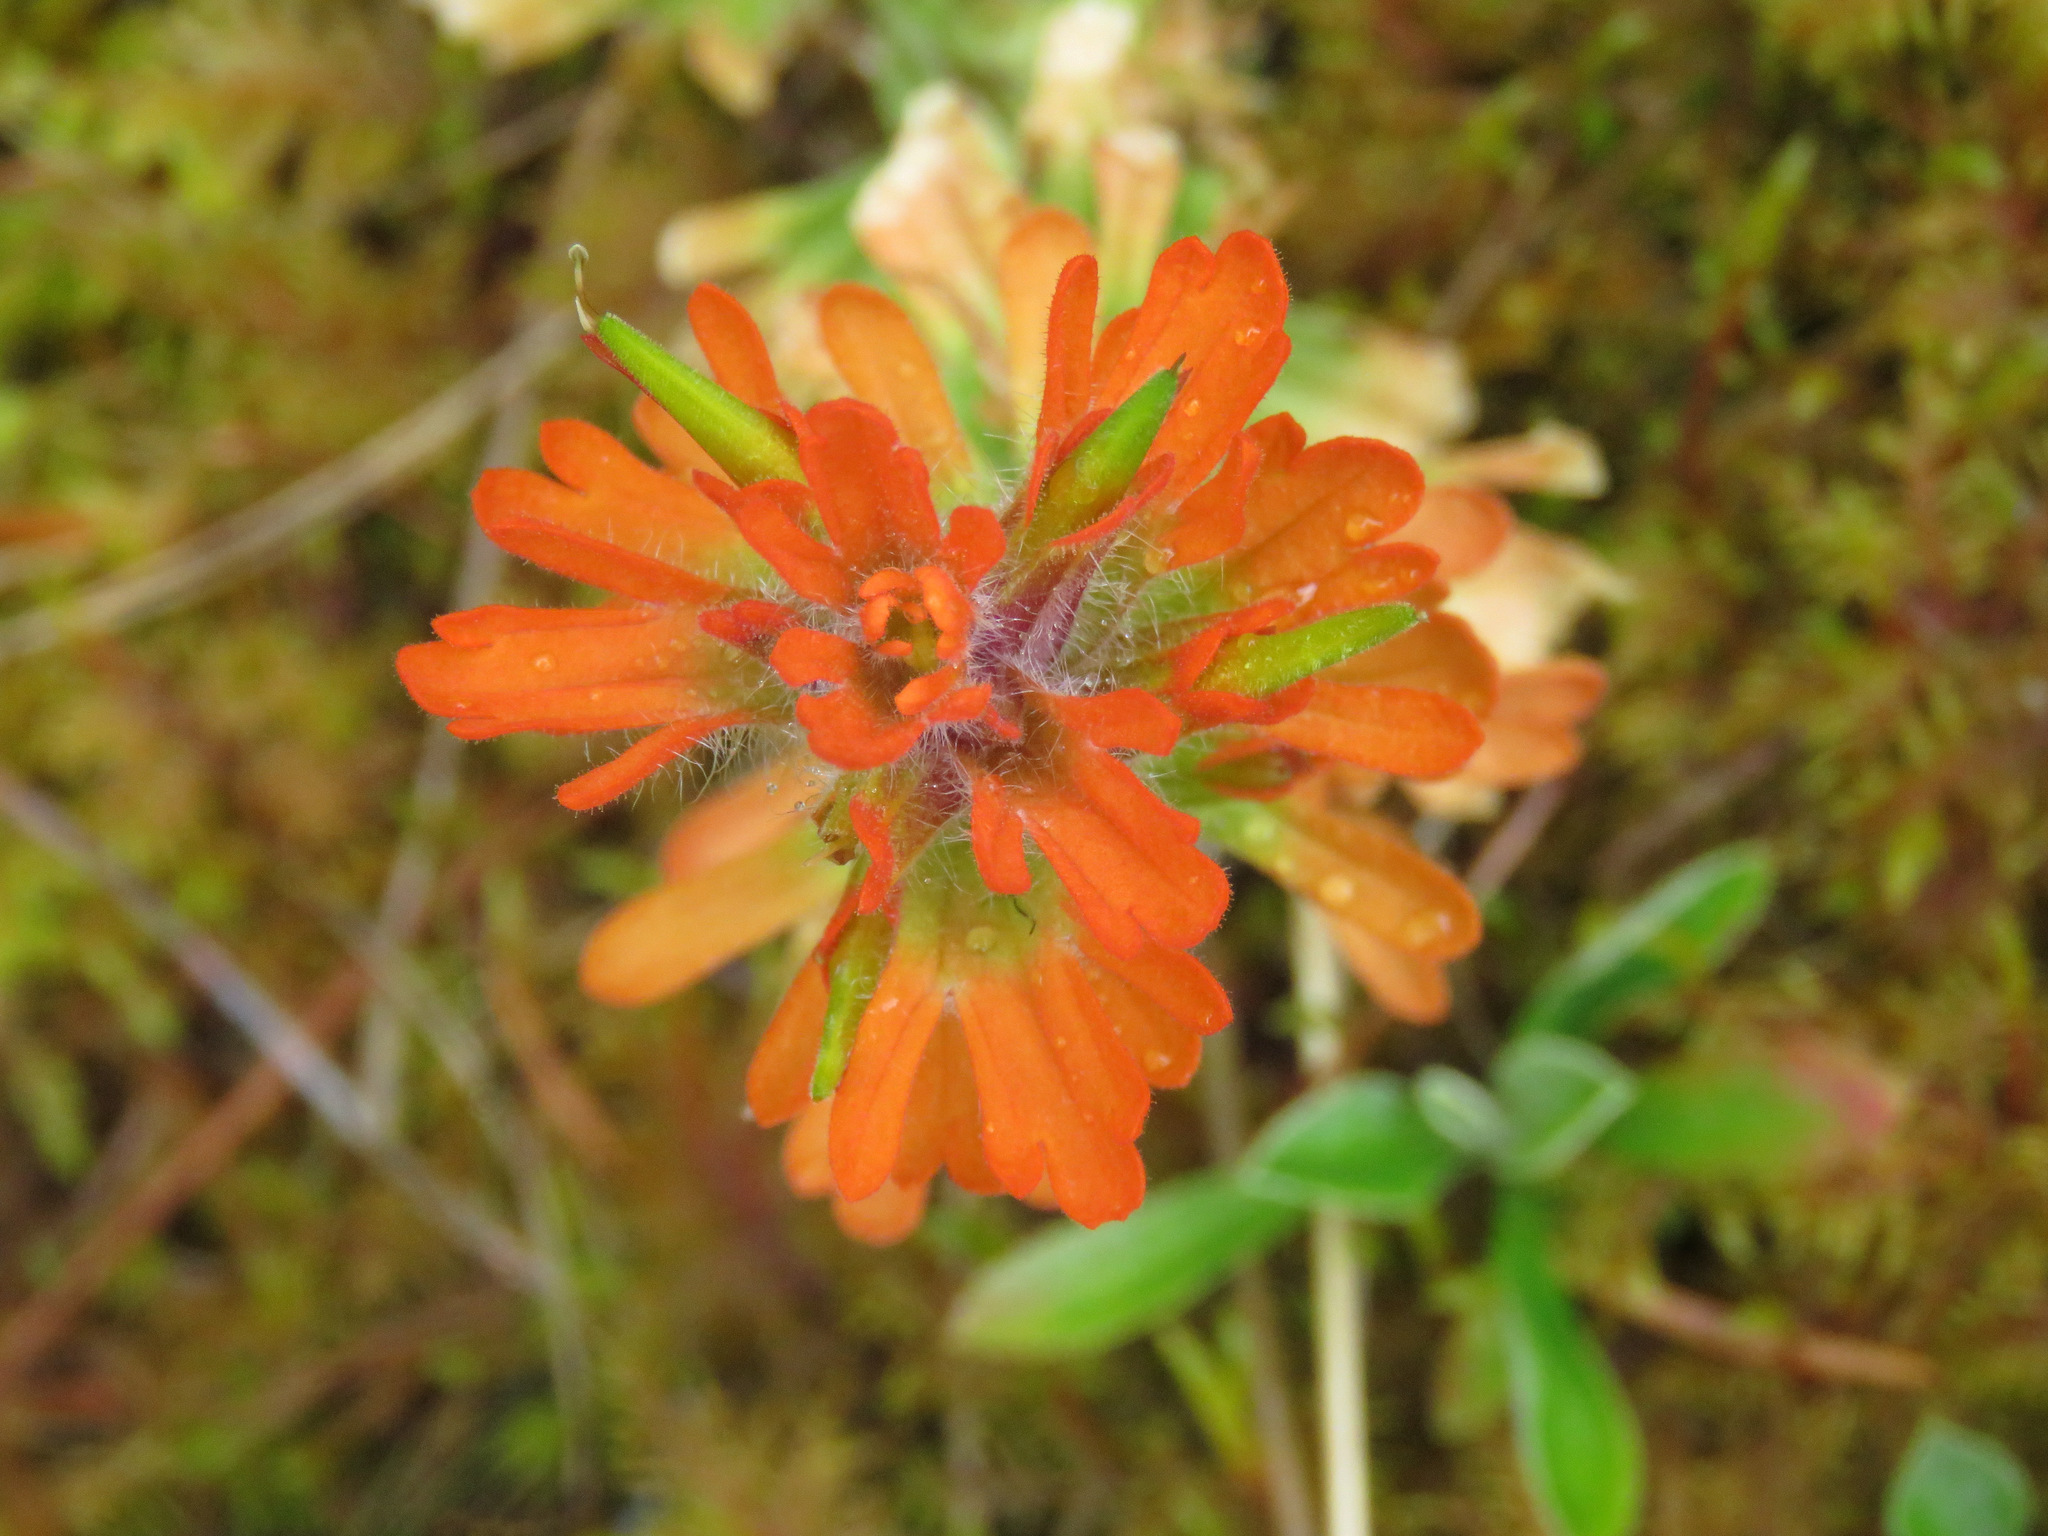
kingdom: Plantae
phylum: Tracheophyta
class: Magnoliopsida
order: Lamiales
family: Orobanchaceae
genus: Castilleja
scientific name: Castilleja hispida
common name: Bristly paintbrush
